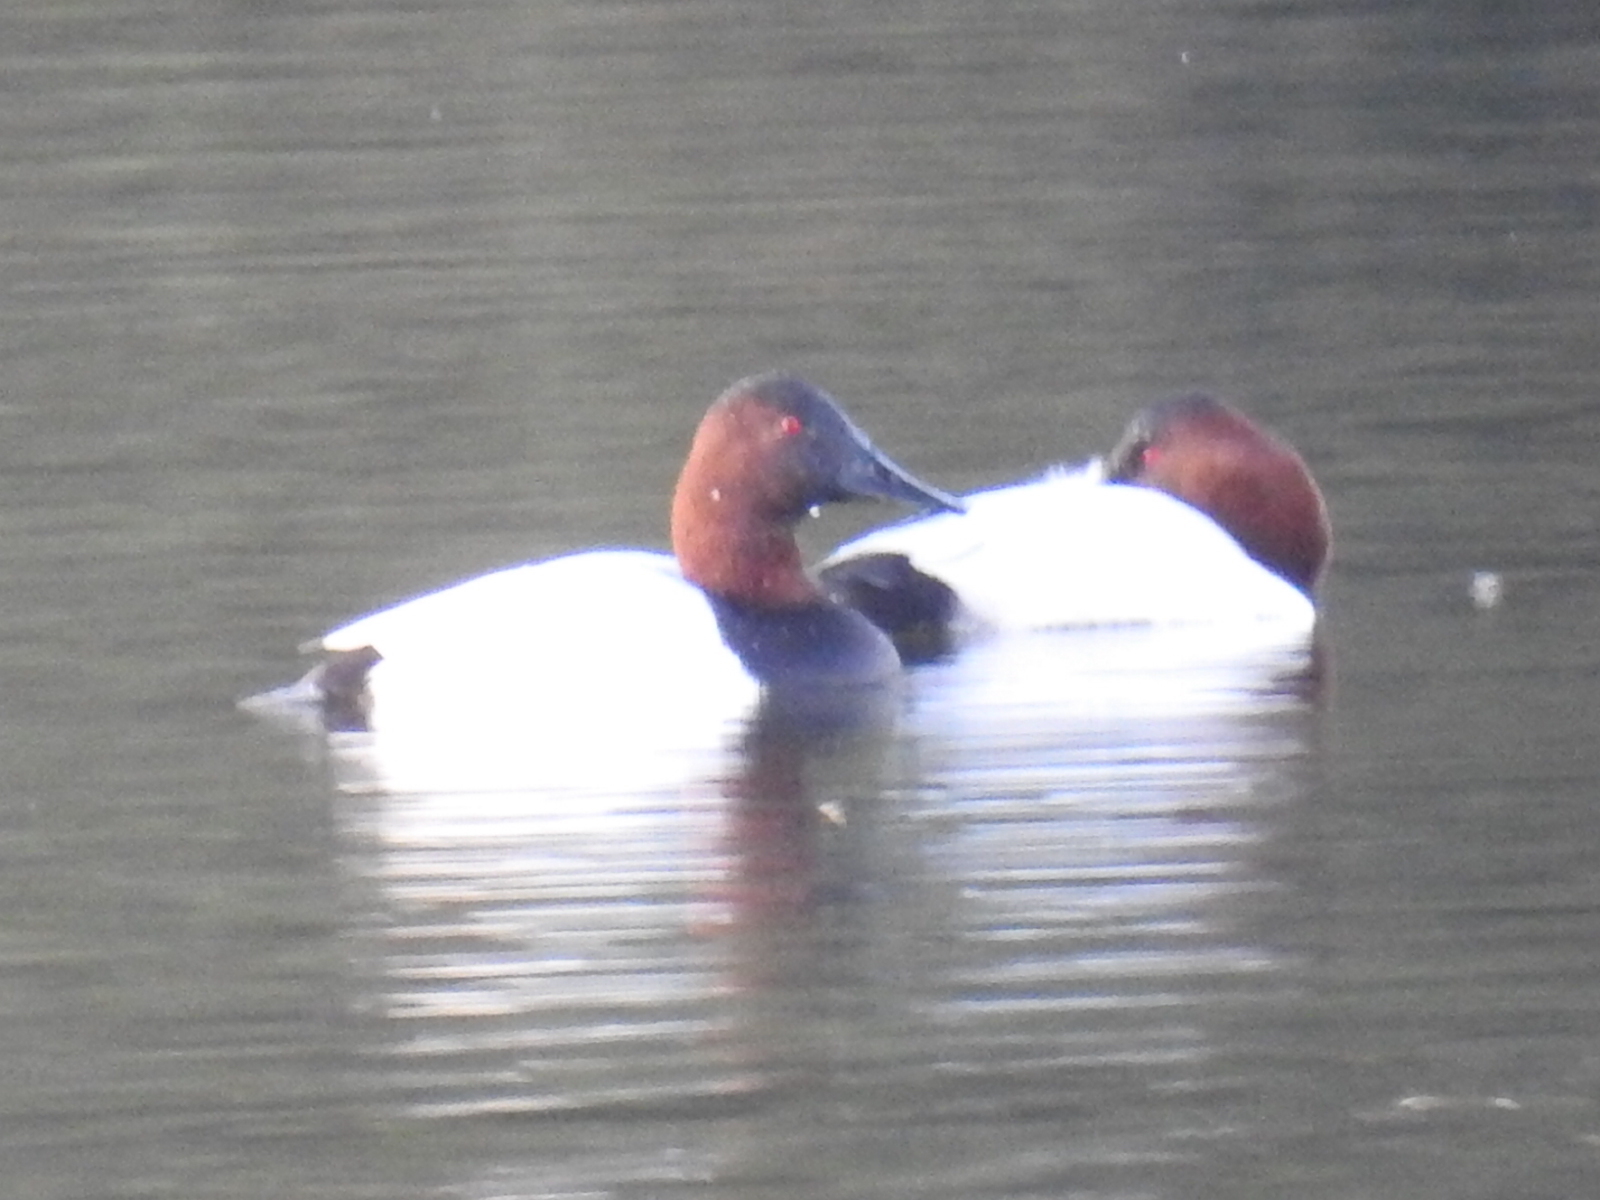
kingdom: Animalia
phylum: Chordata
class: Aves
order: Anseriformes
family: Anatidae
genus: Aythya
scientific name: Aythya valisineria
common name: Canvasback
